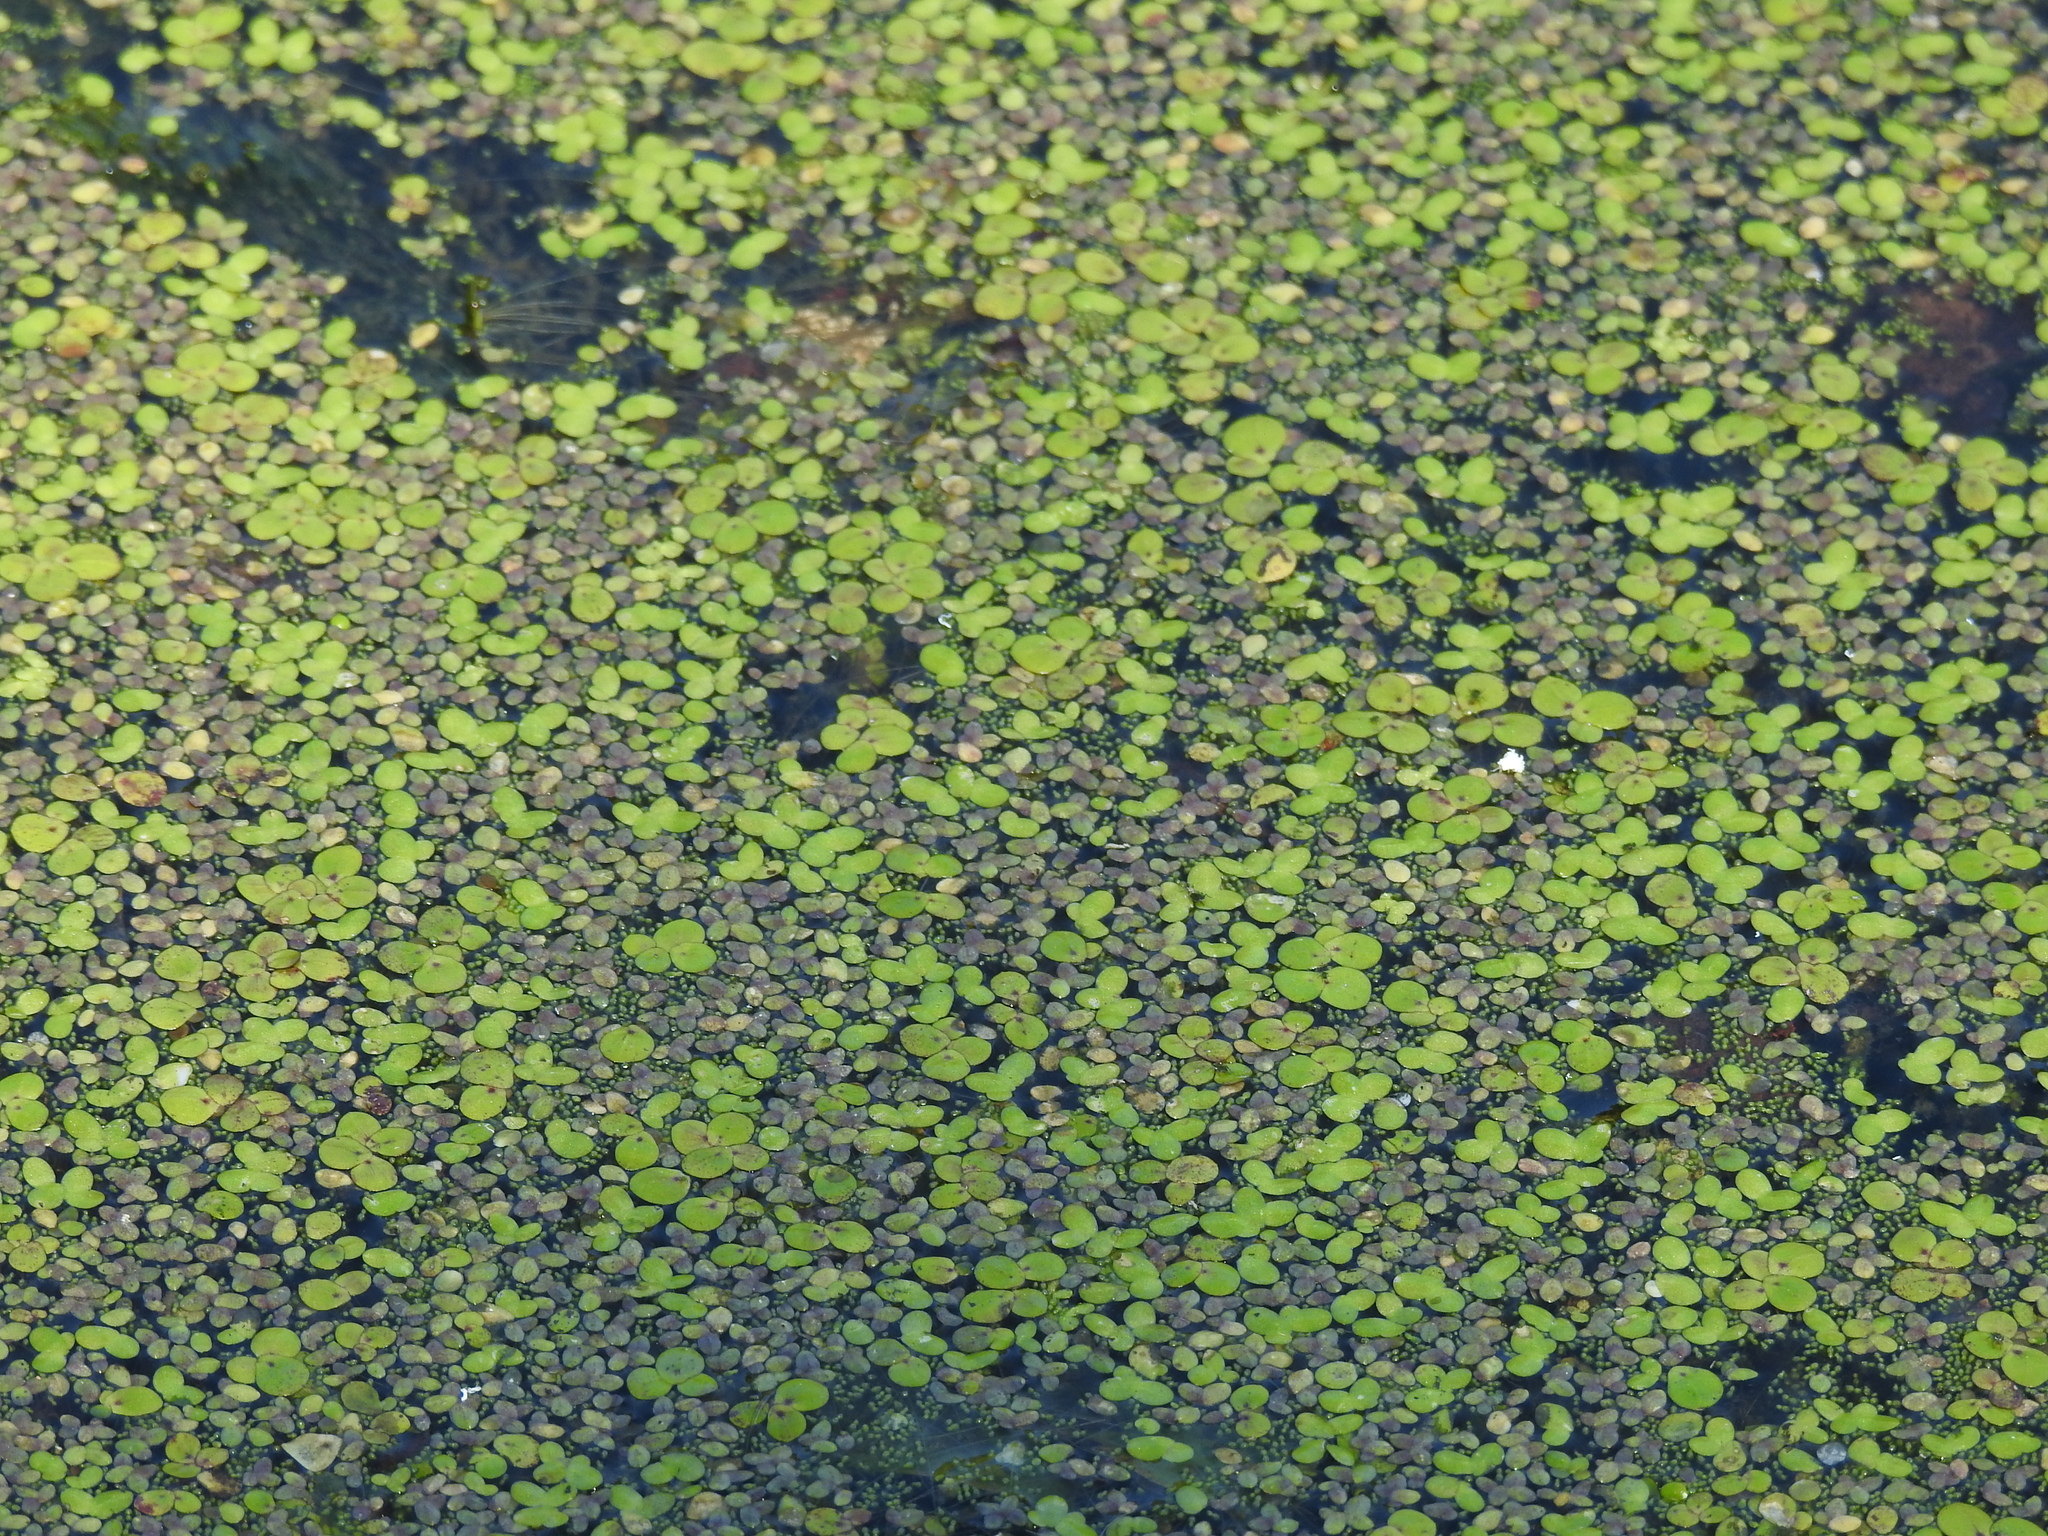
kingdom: Plantae
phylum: Tracheophyta
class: Liliopsida
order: Alismatales
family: Araceae
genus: Lemna
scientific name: Lemna minor
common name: Common duckweed
